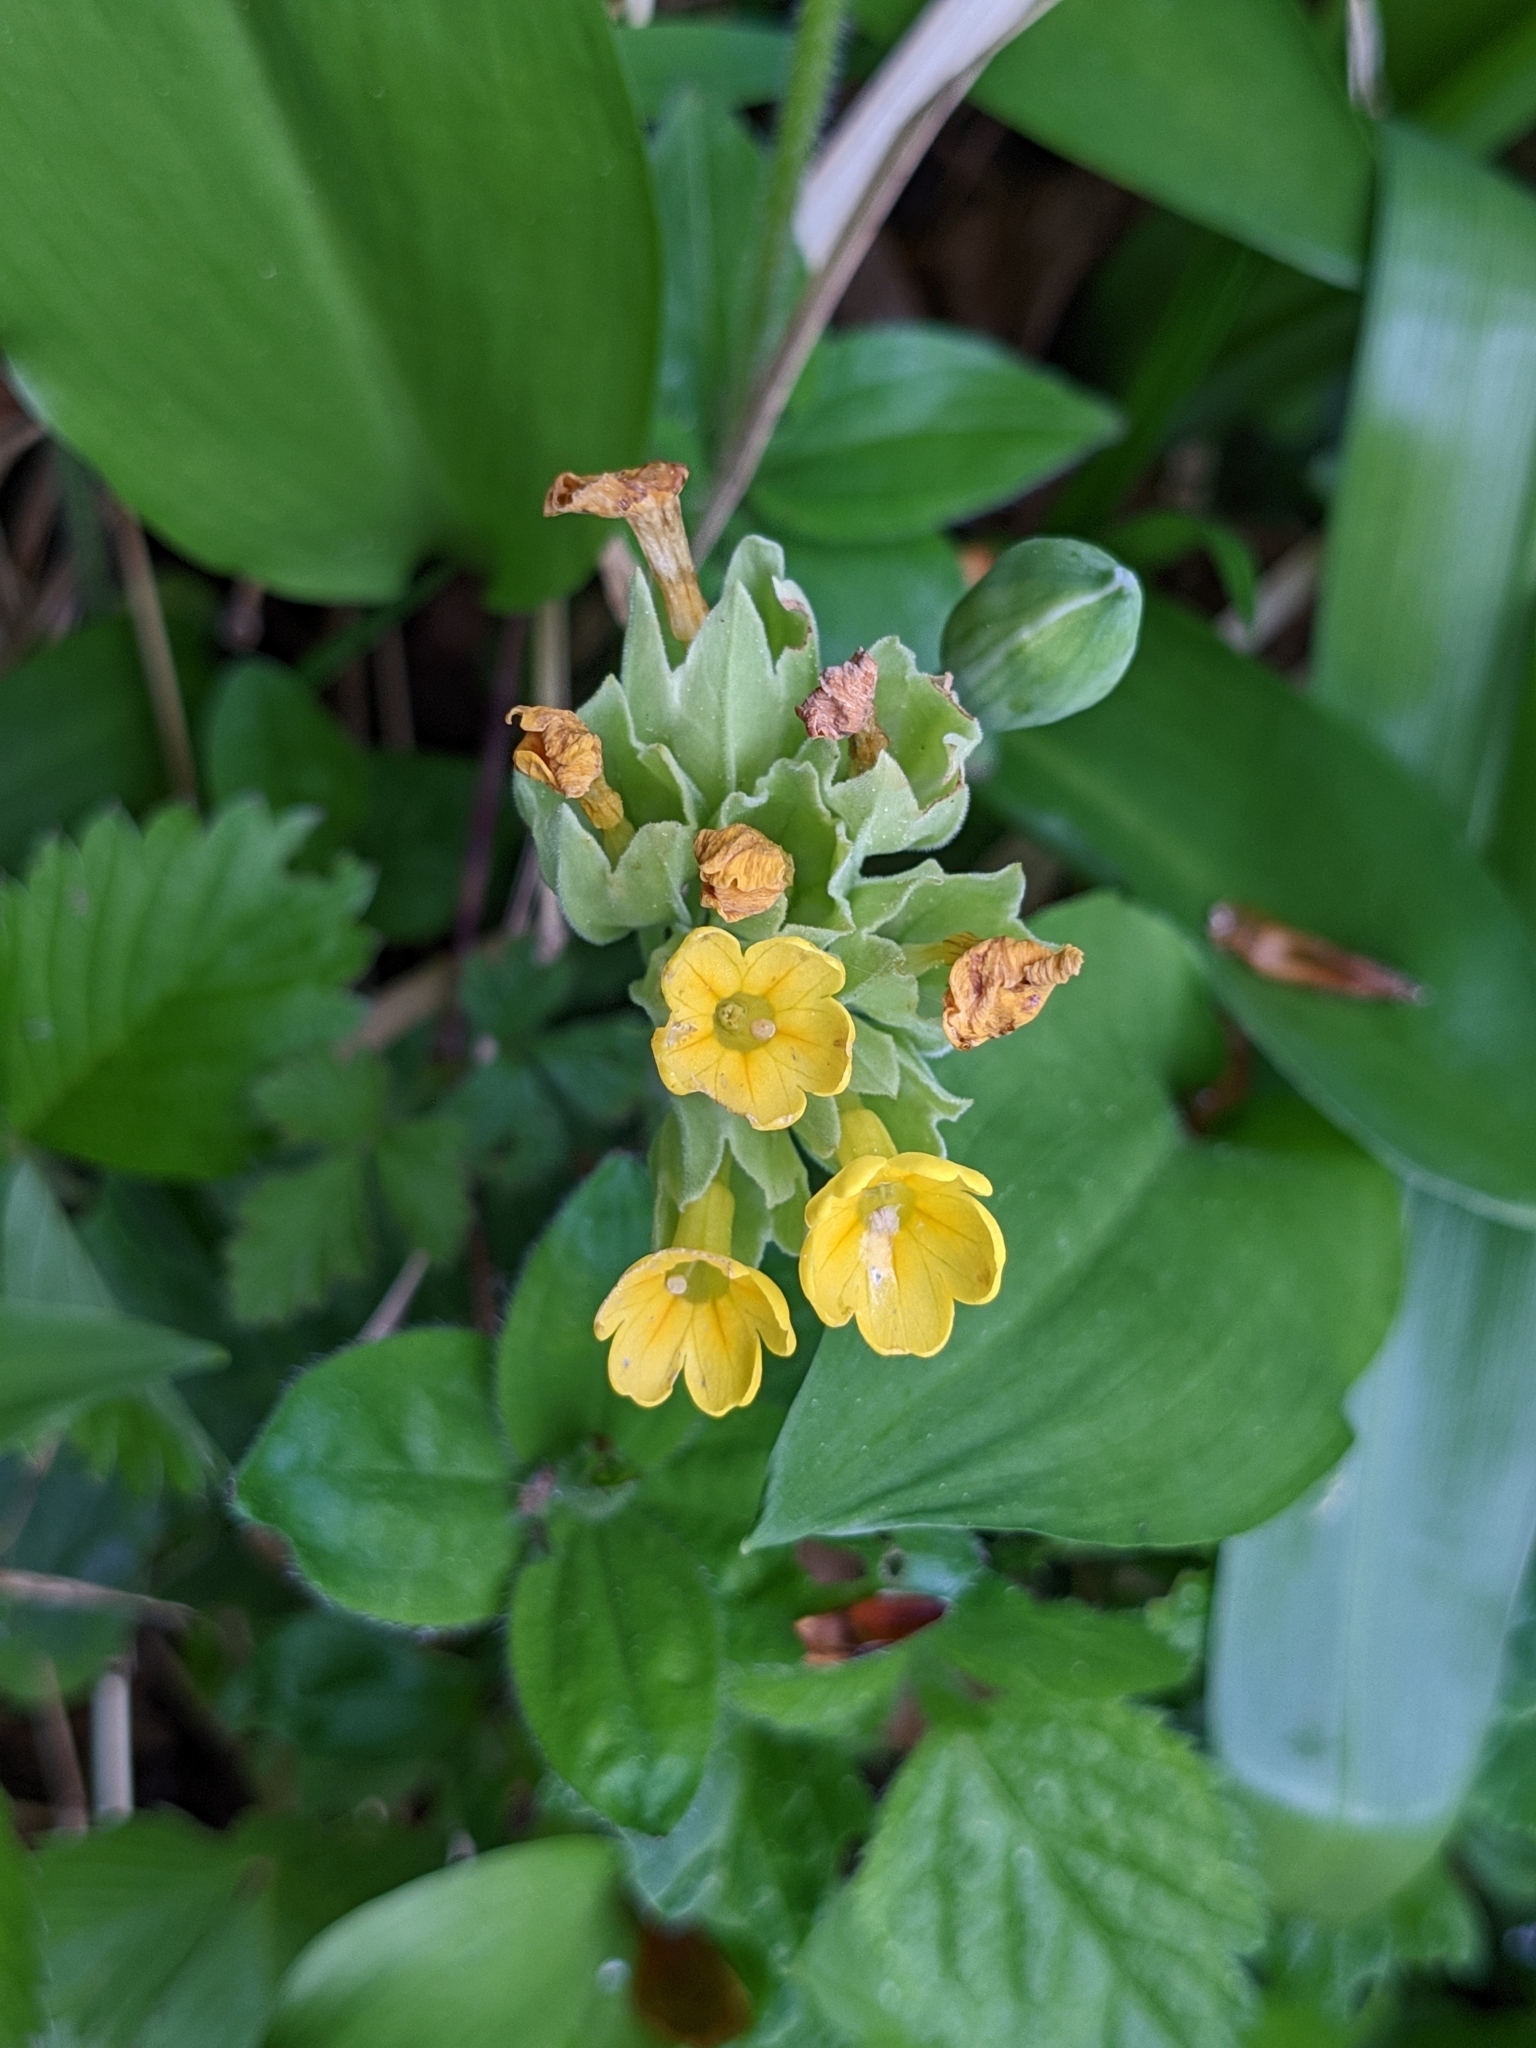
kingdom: Plantae
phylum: Tracheophyta
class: Magnoliopsida
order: Ericales
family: Primulaceae
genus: Primula
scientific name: Primula veris
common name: Cowslip
